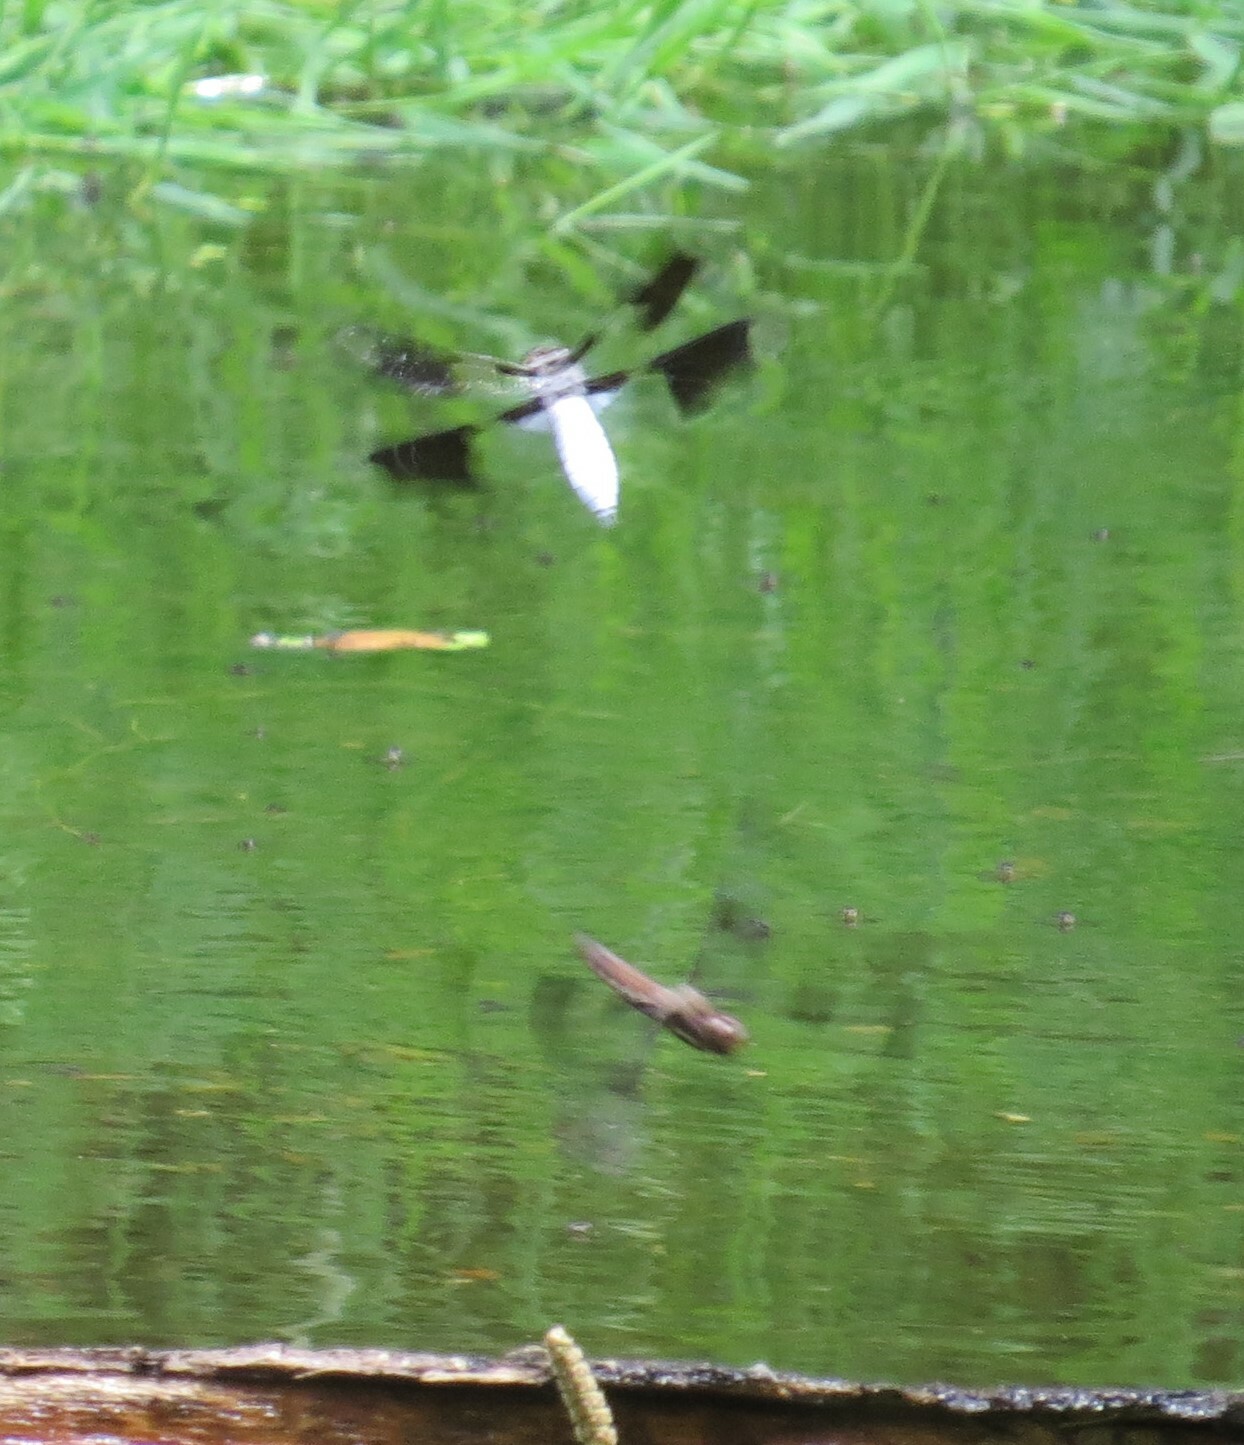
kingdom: Animalia
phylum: Arthropoda
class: Insecta
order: Odonata
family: Libellulidae
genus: Plathemis
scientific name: Plathemis lydia
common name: Common whitetail
